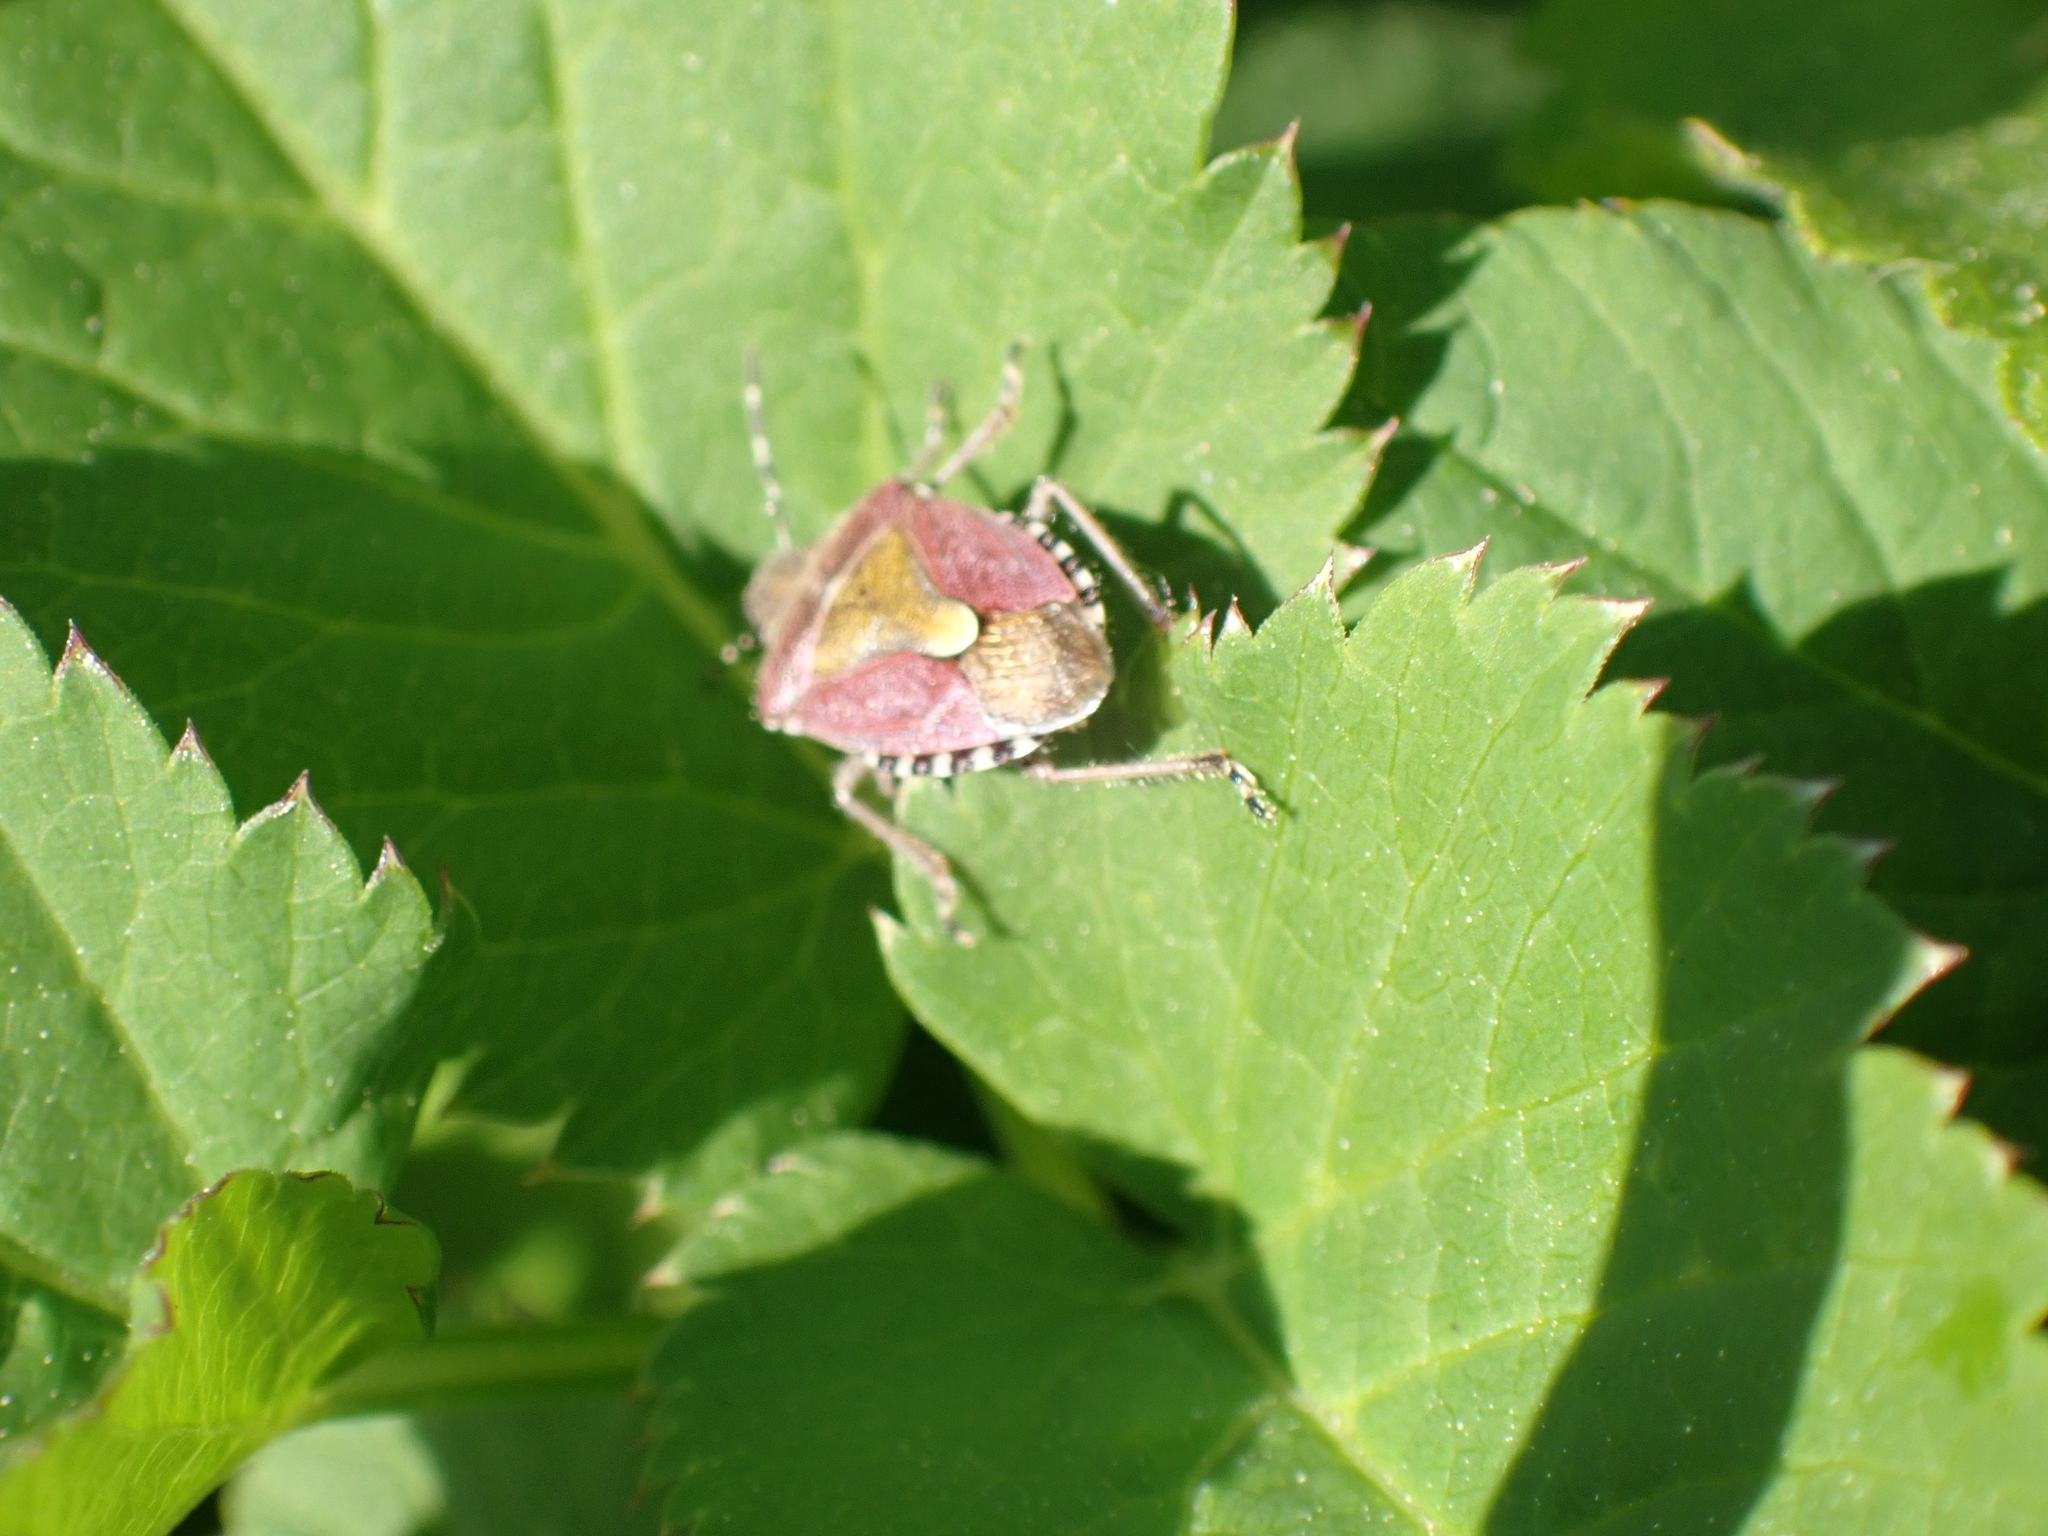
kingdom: Animalia
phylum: Arthropoda
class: Insecta
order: Hemiptera
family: Pentatomidae
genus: Dolycoris
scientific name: Dolycoris baccarum
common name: Sloe bug
